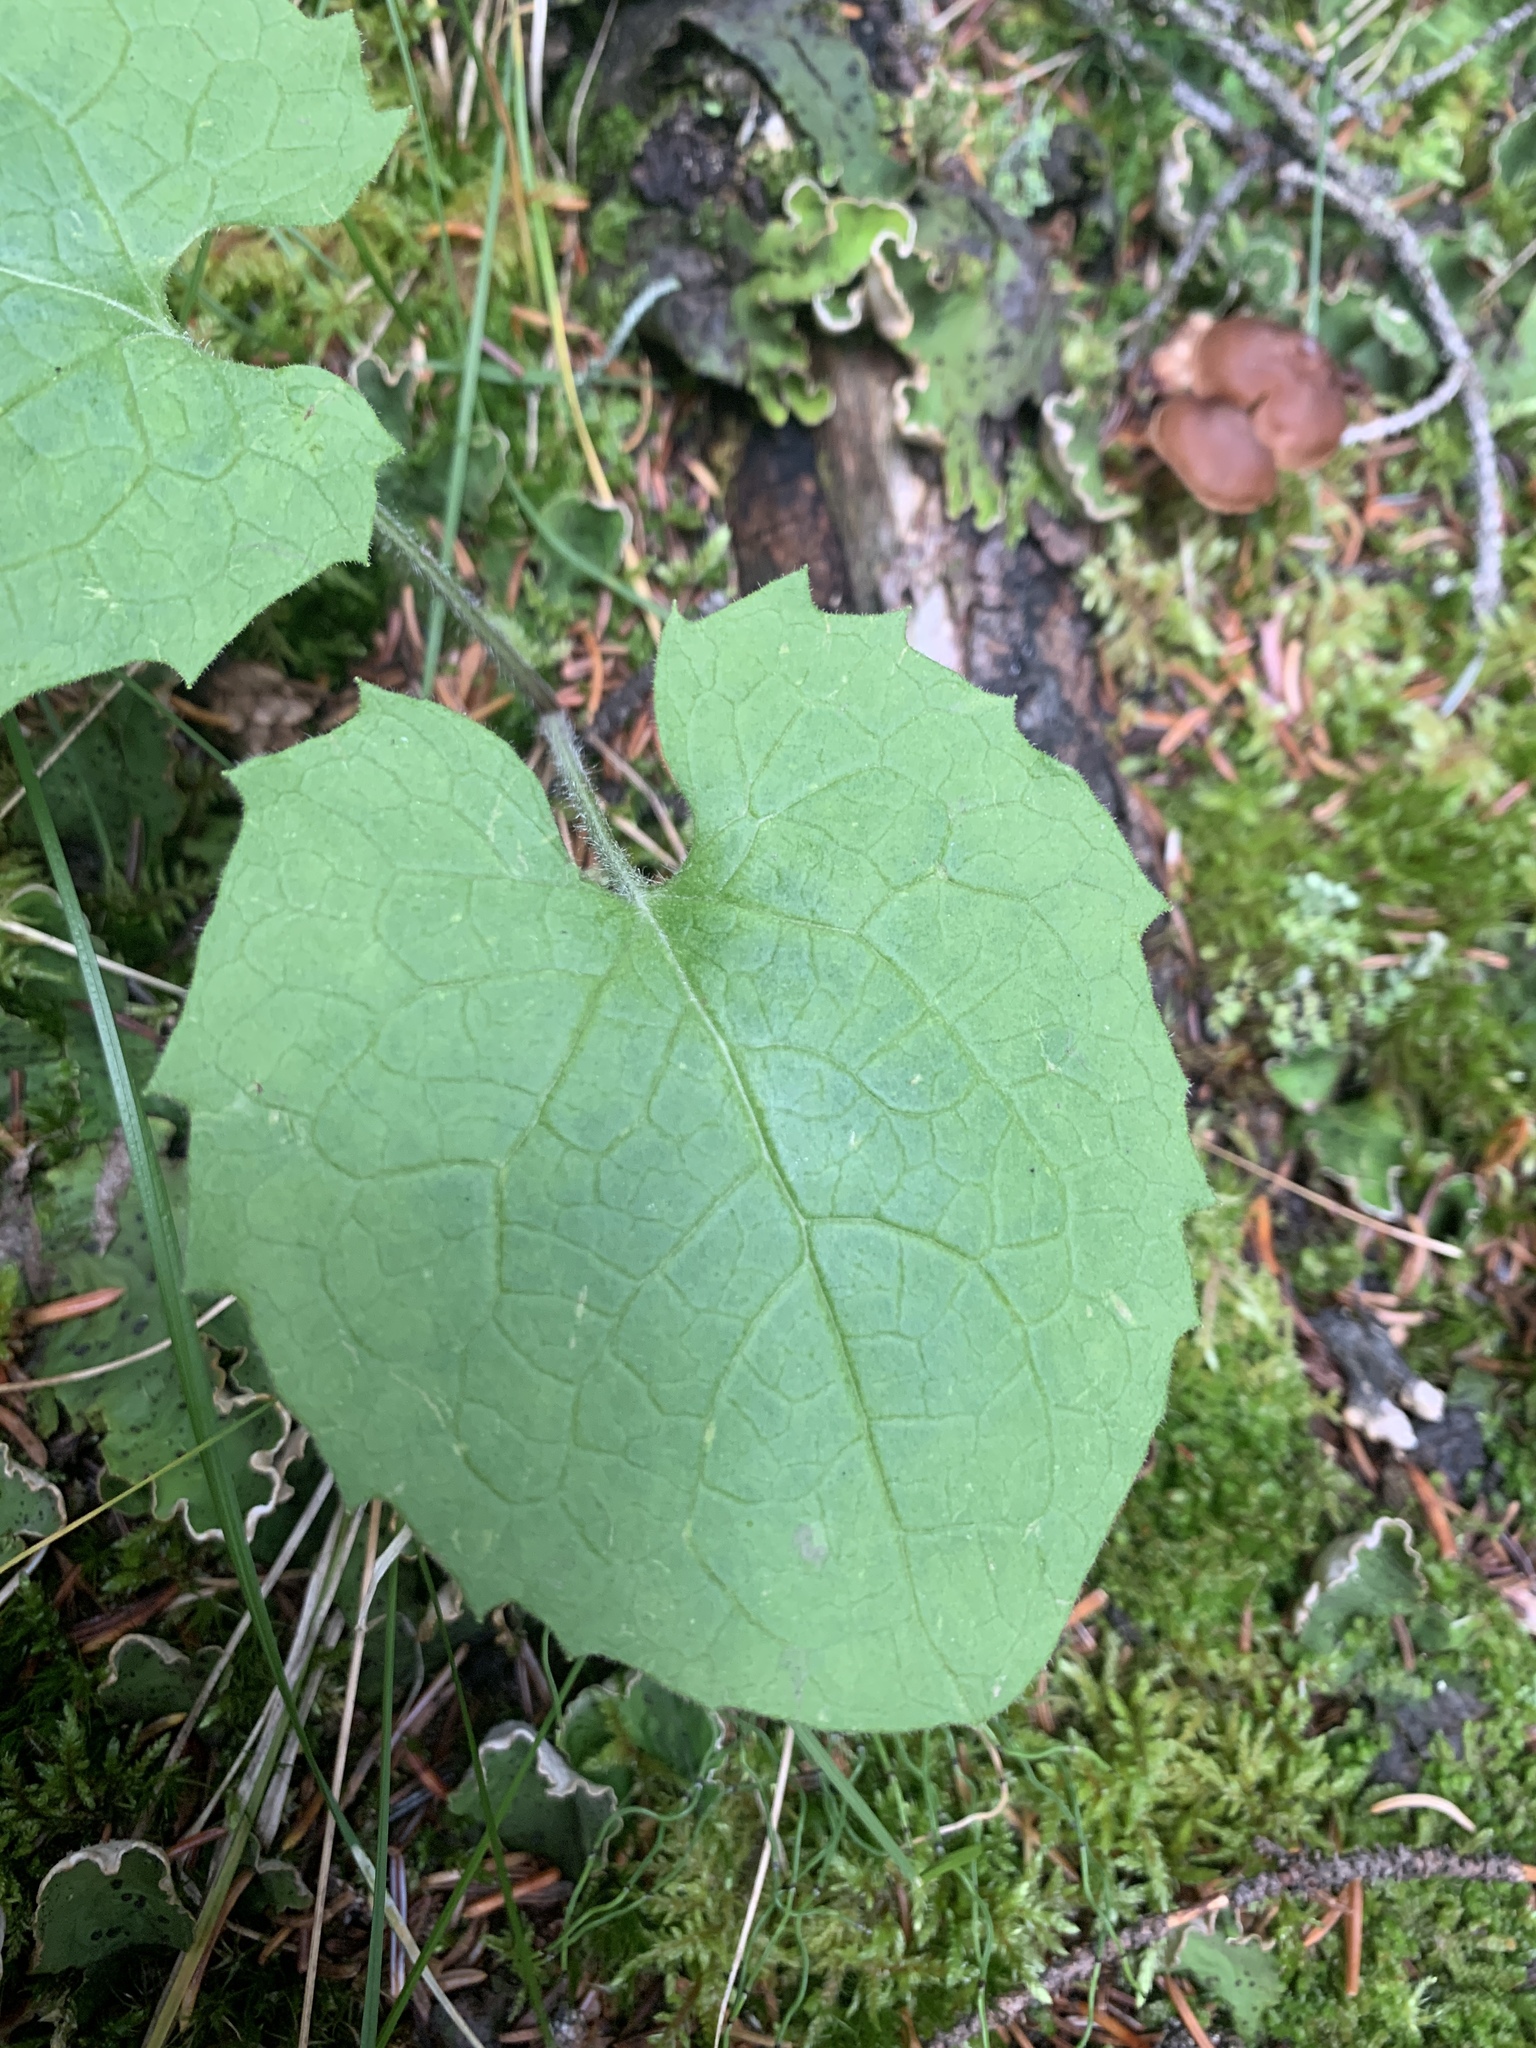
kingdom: Plantae
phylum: Tracheophyta
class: Magnoliopsida
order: Asterales
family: Asteraceae
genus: Arnica
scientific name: Arnica cordifolia
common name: Heart-leaf arnica
